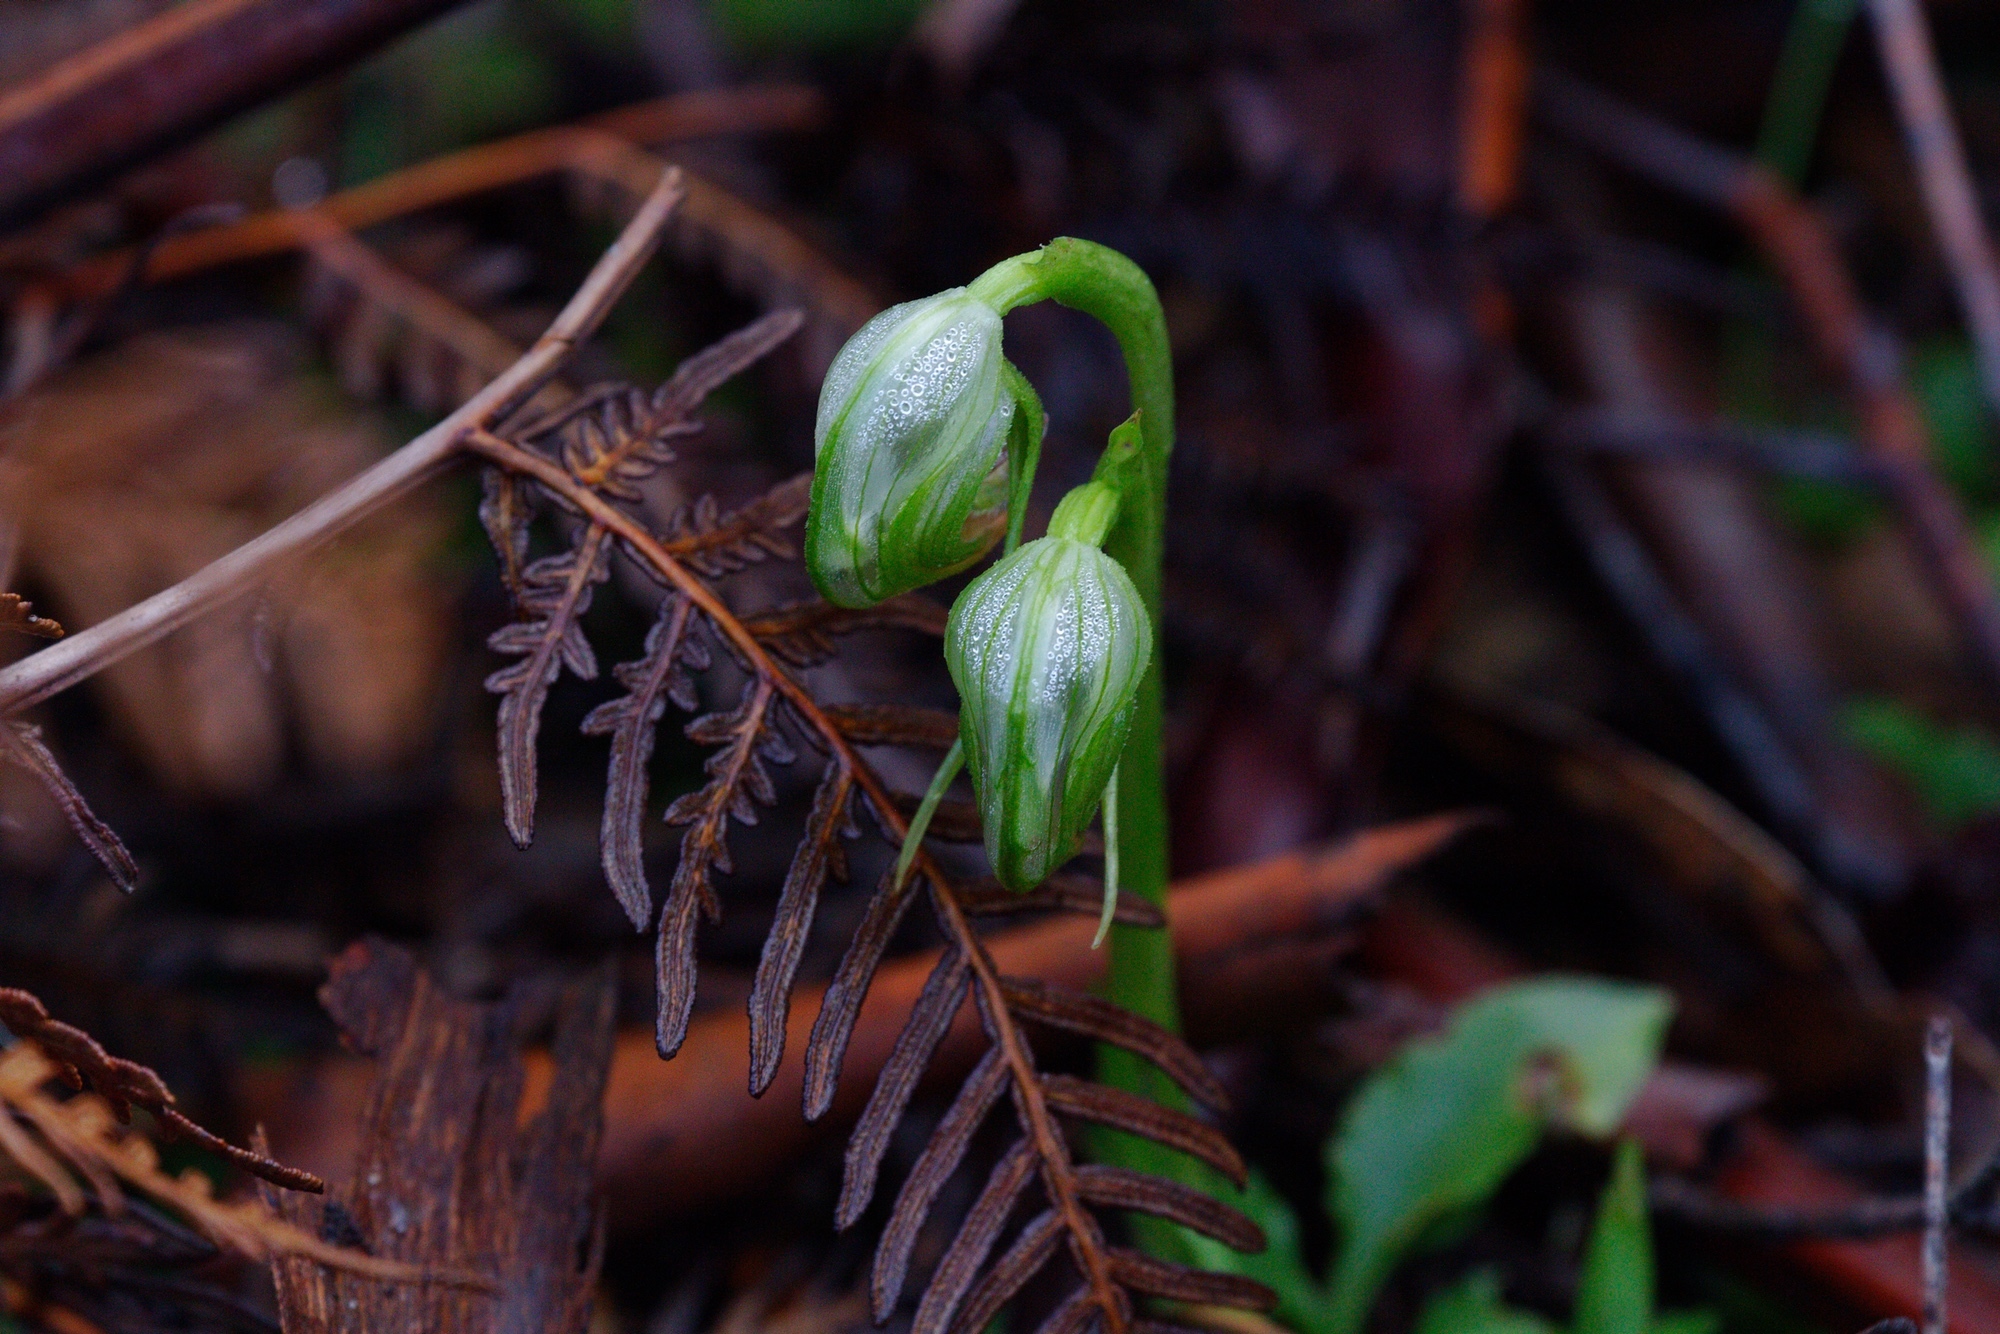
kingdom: Plantae
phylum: Tracheophyta
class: Liliopsida
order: Asparagales
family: Orchidaceae
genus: Pterostylis
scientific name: Pterostylis nutans
